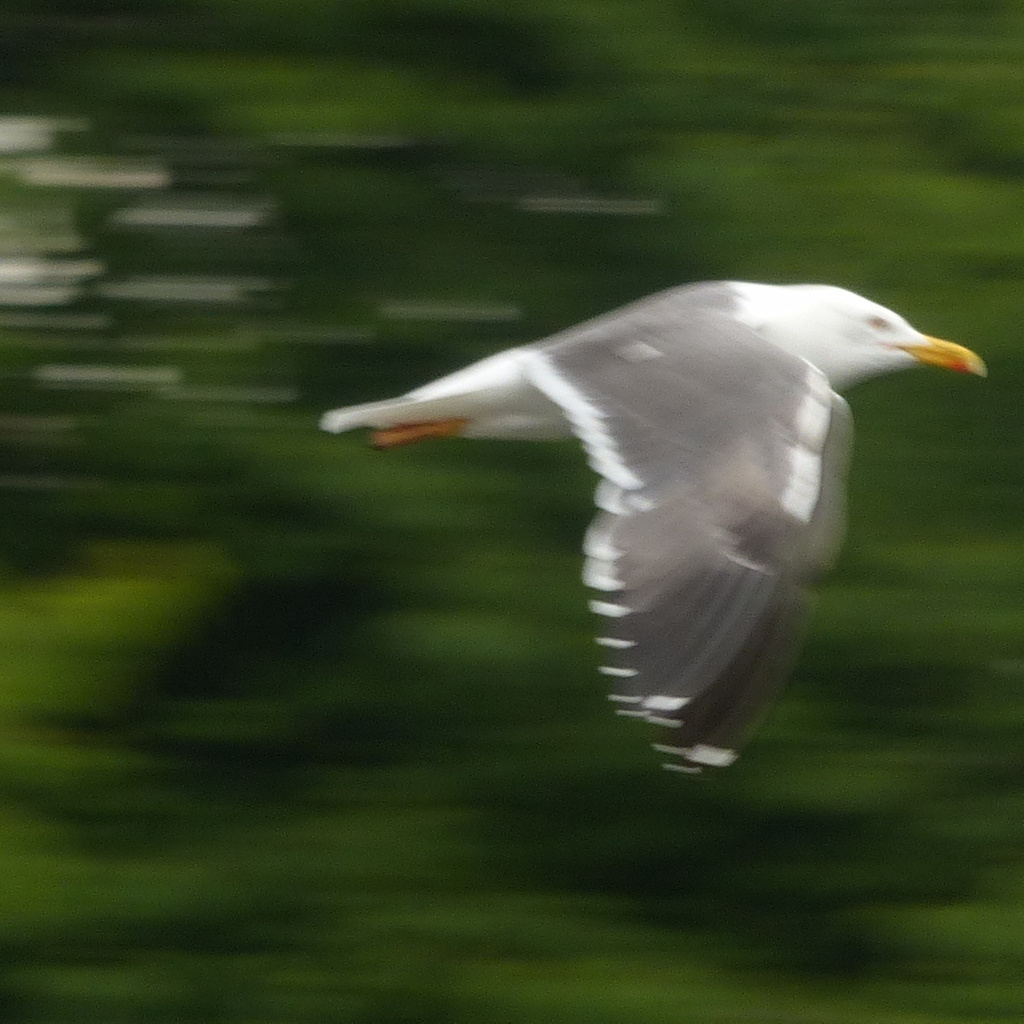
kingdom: Animalia
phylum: Chordata
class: Aves
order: Charadriiformes
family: Laridae
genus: Larus
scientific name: Larus fuscus
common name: Lesser black-backed gull
